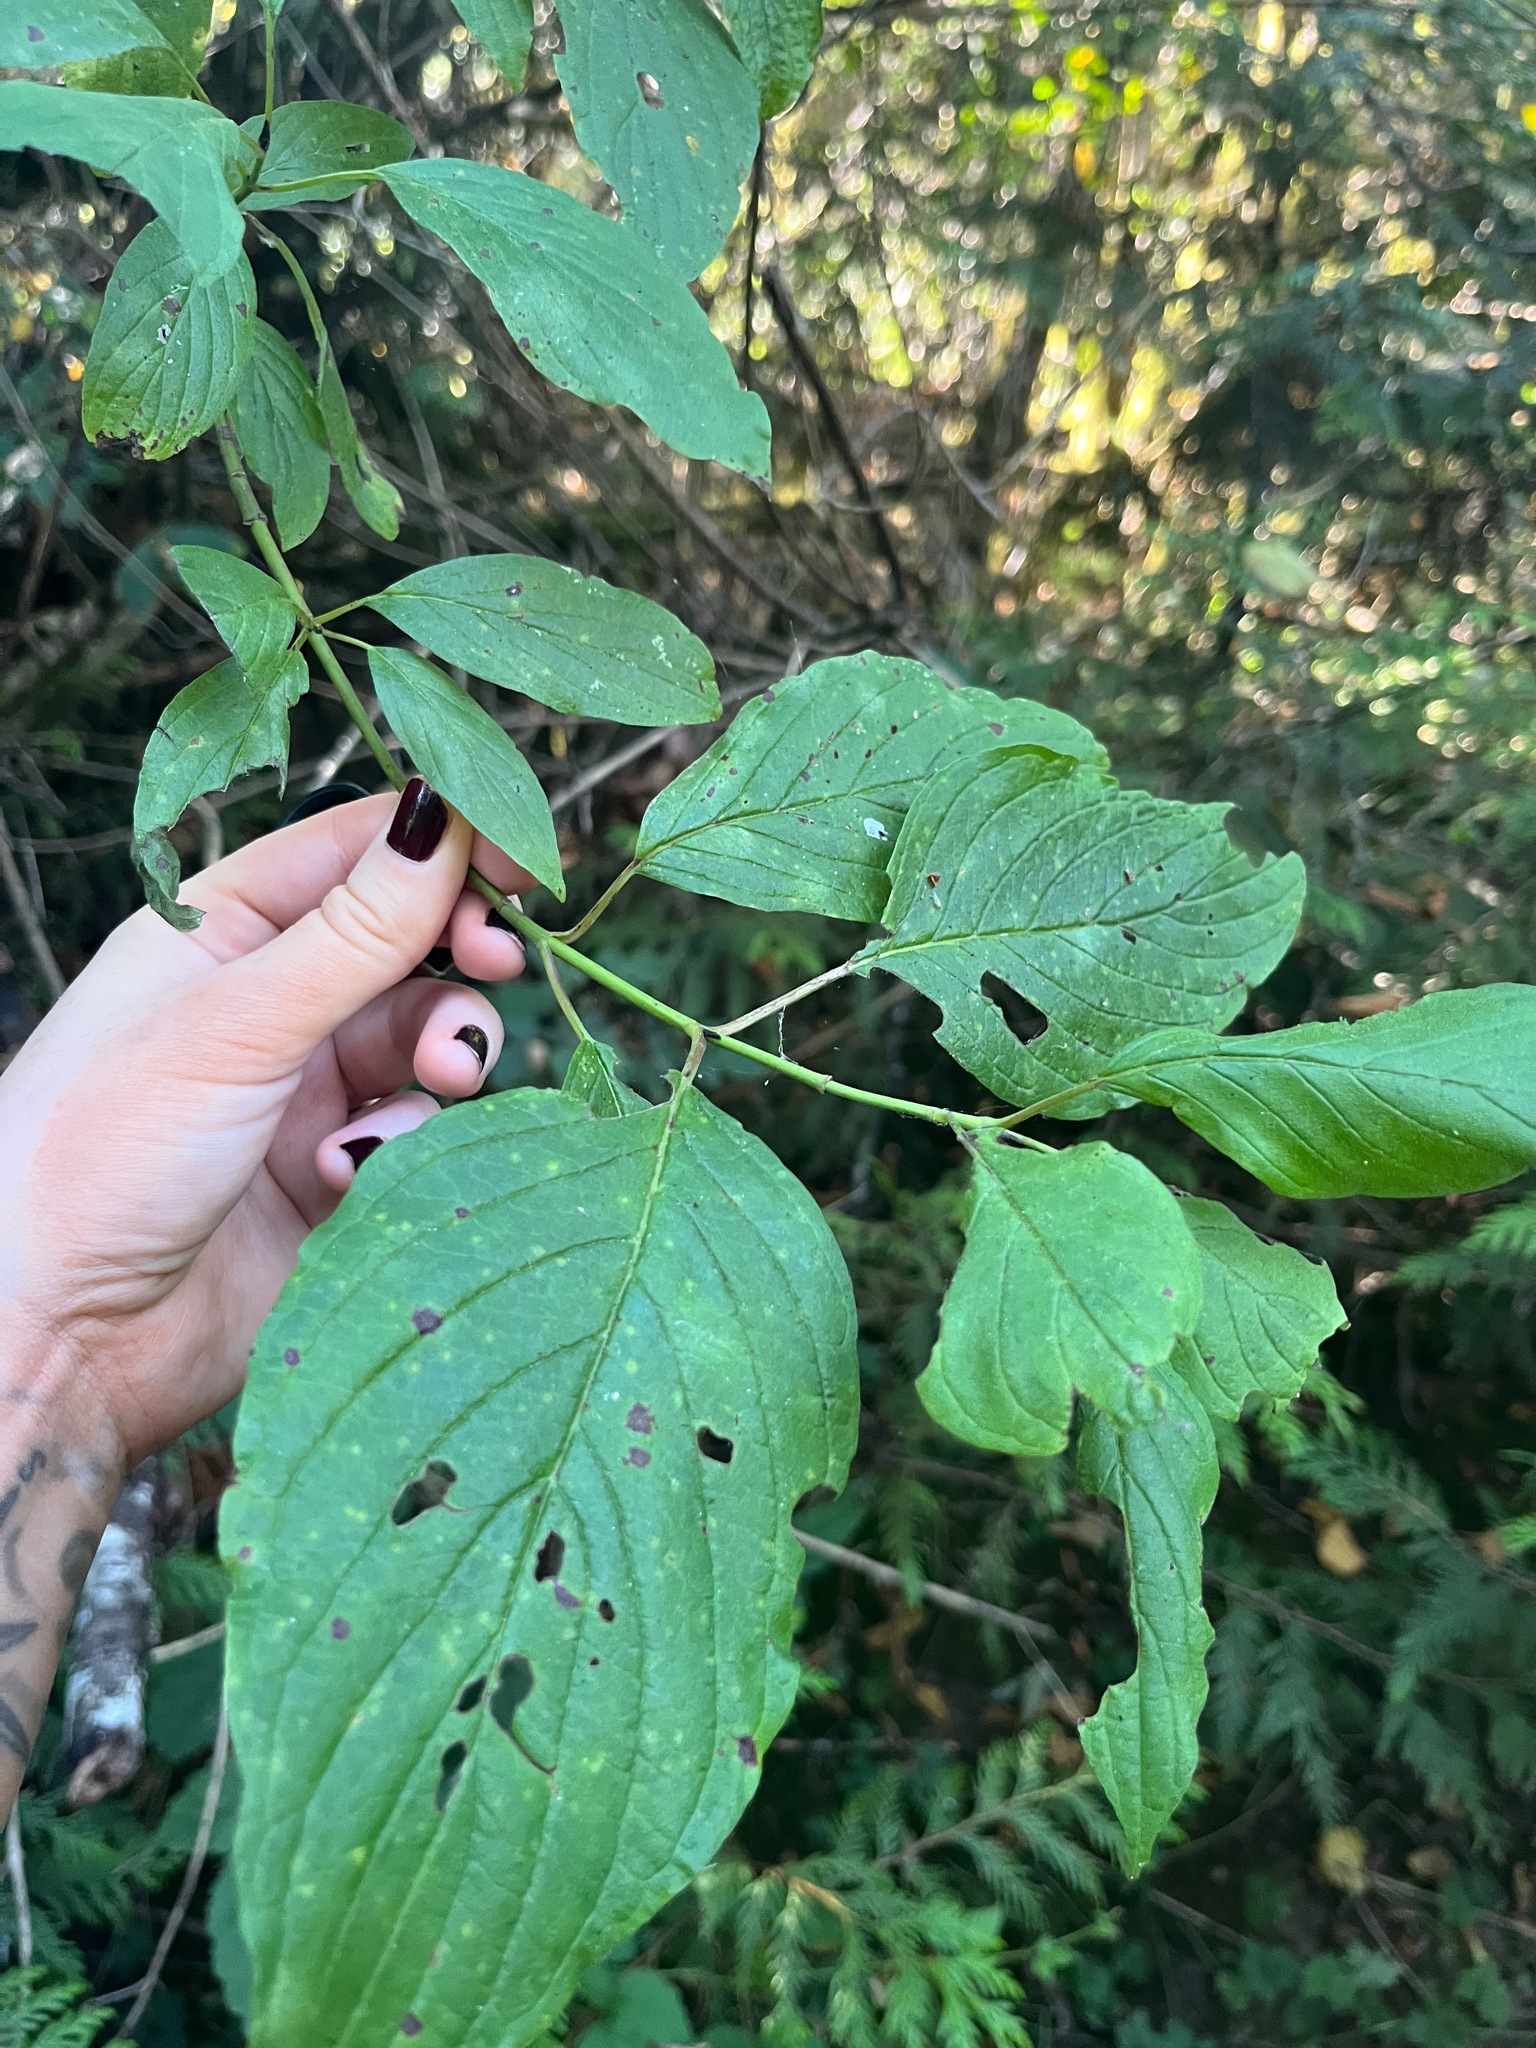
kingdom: Plantae
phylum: Tracheophyta
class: Magnoliopsida
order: Cornales
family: Cornaceae
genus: Cornus
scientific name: Cornus sericea
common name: Red-osier dogwood
